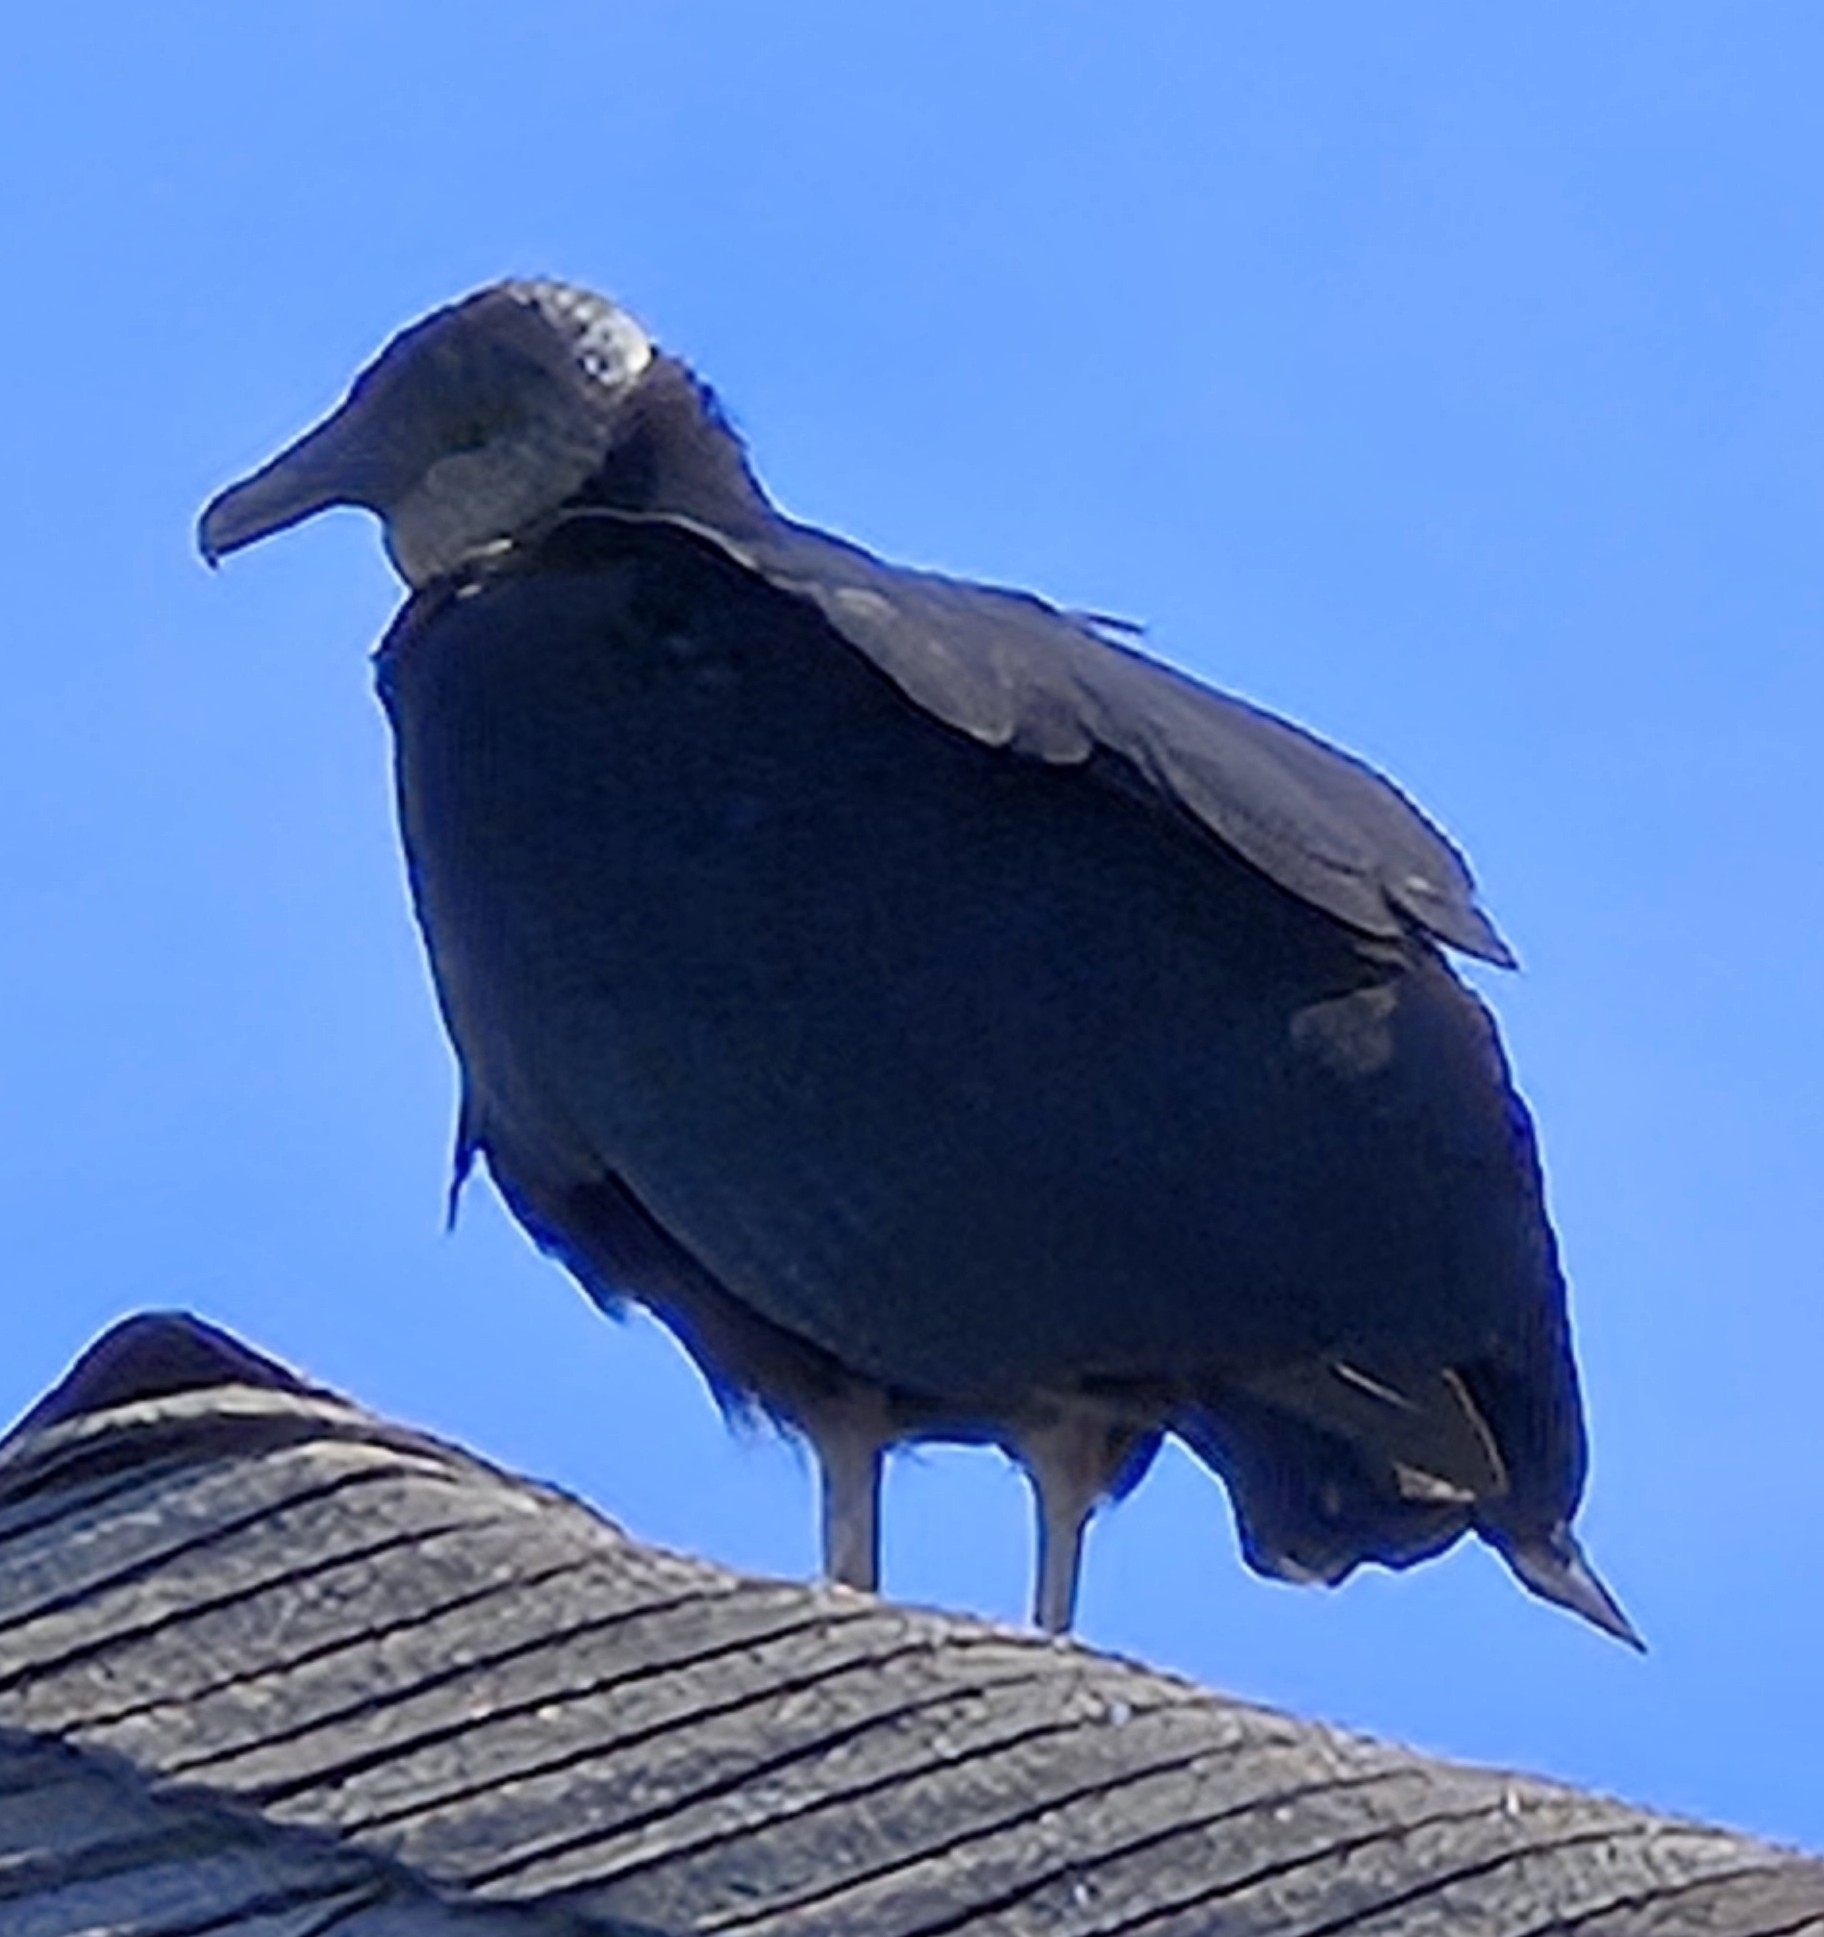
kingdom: Animalia
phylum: Chordata
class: Aves
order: Accipitriformes
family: Cathartidae
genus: Coragyps
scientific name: Coragyps atratus
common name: Black vulture
